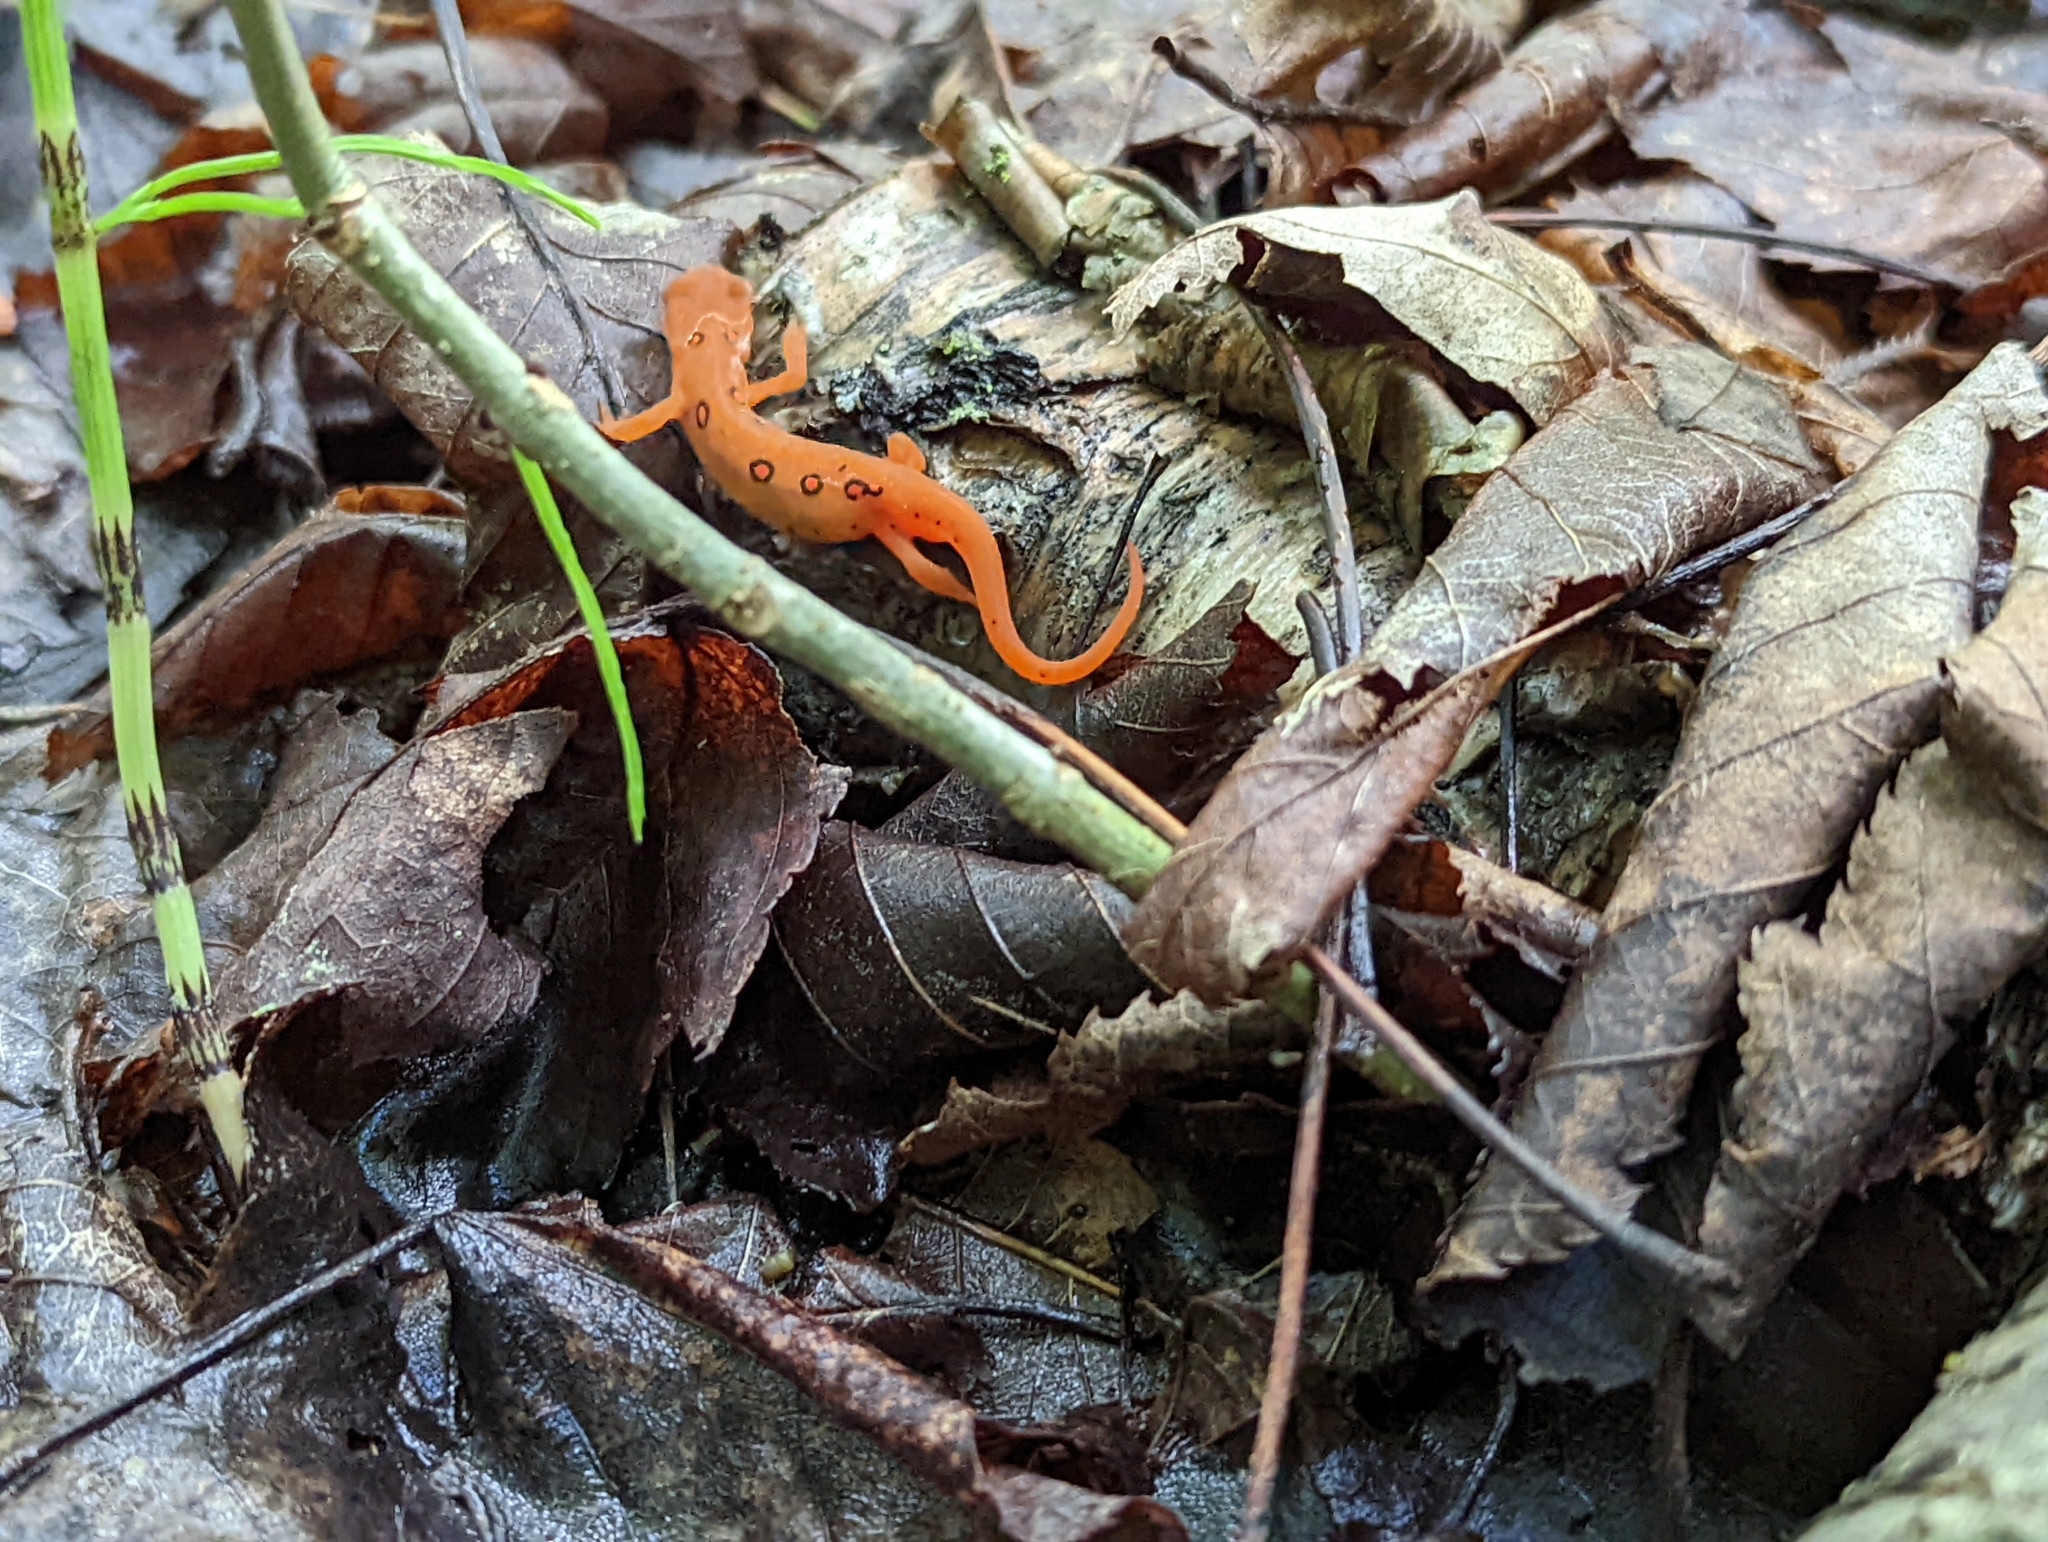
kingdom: Animalia
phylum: Chordata
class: Amphibia
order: Caudata
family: Salamandridae
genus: Notophthalmus
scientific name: Notophthalmus viridescens
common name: Eastern newt
